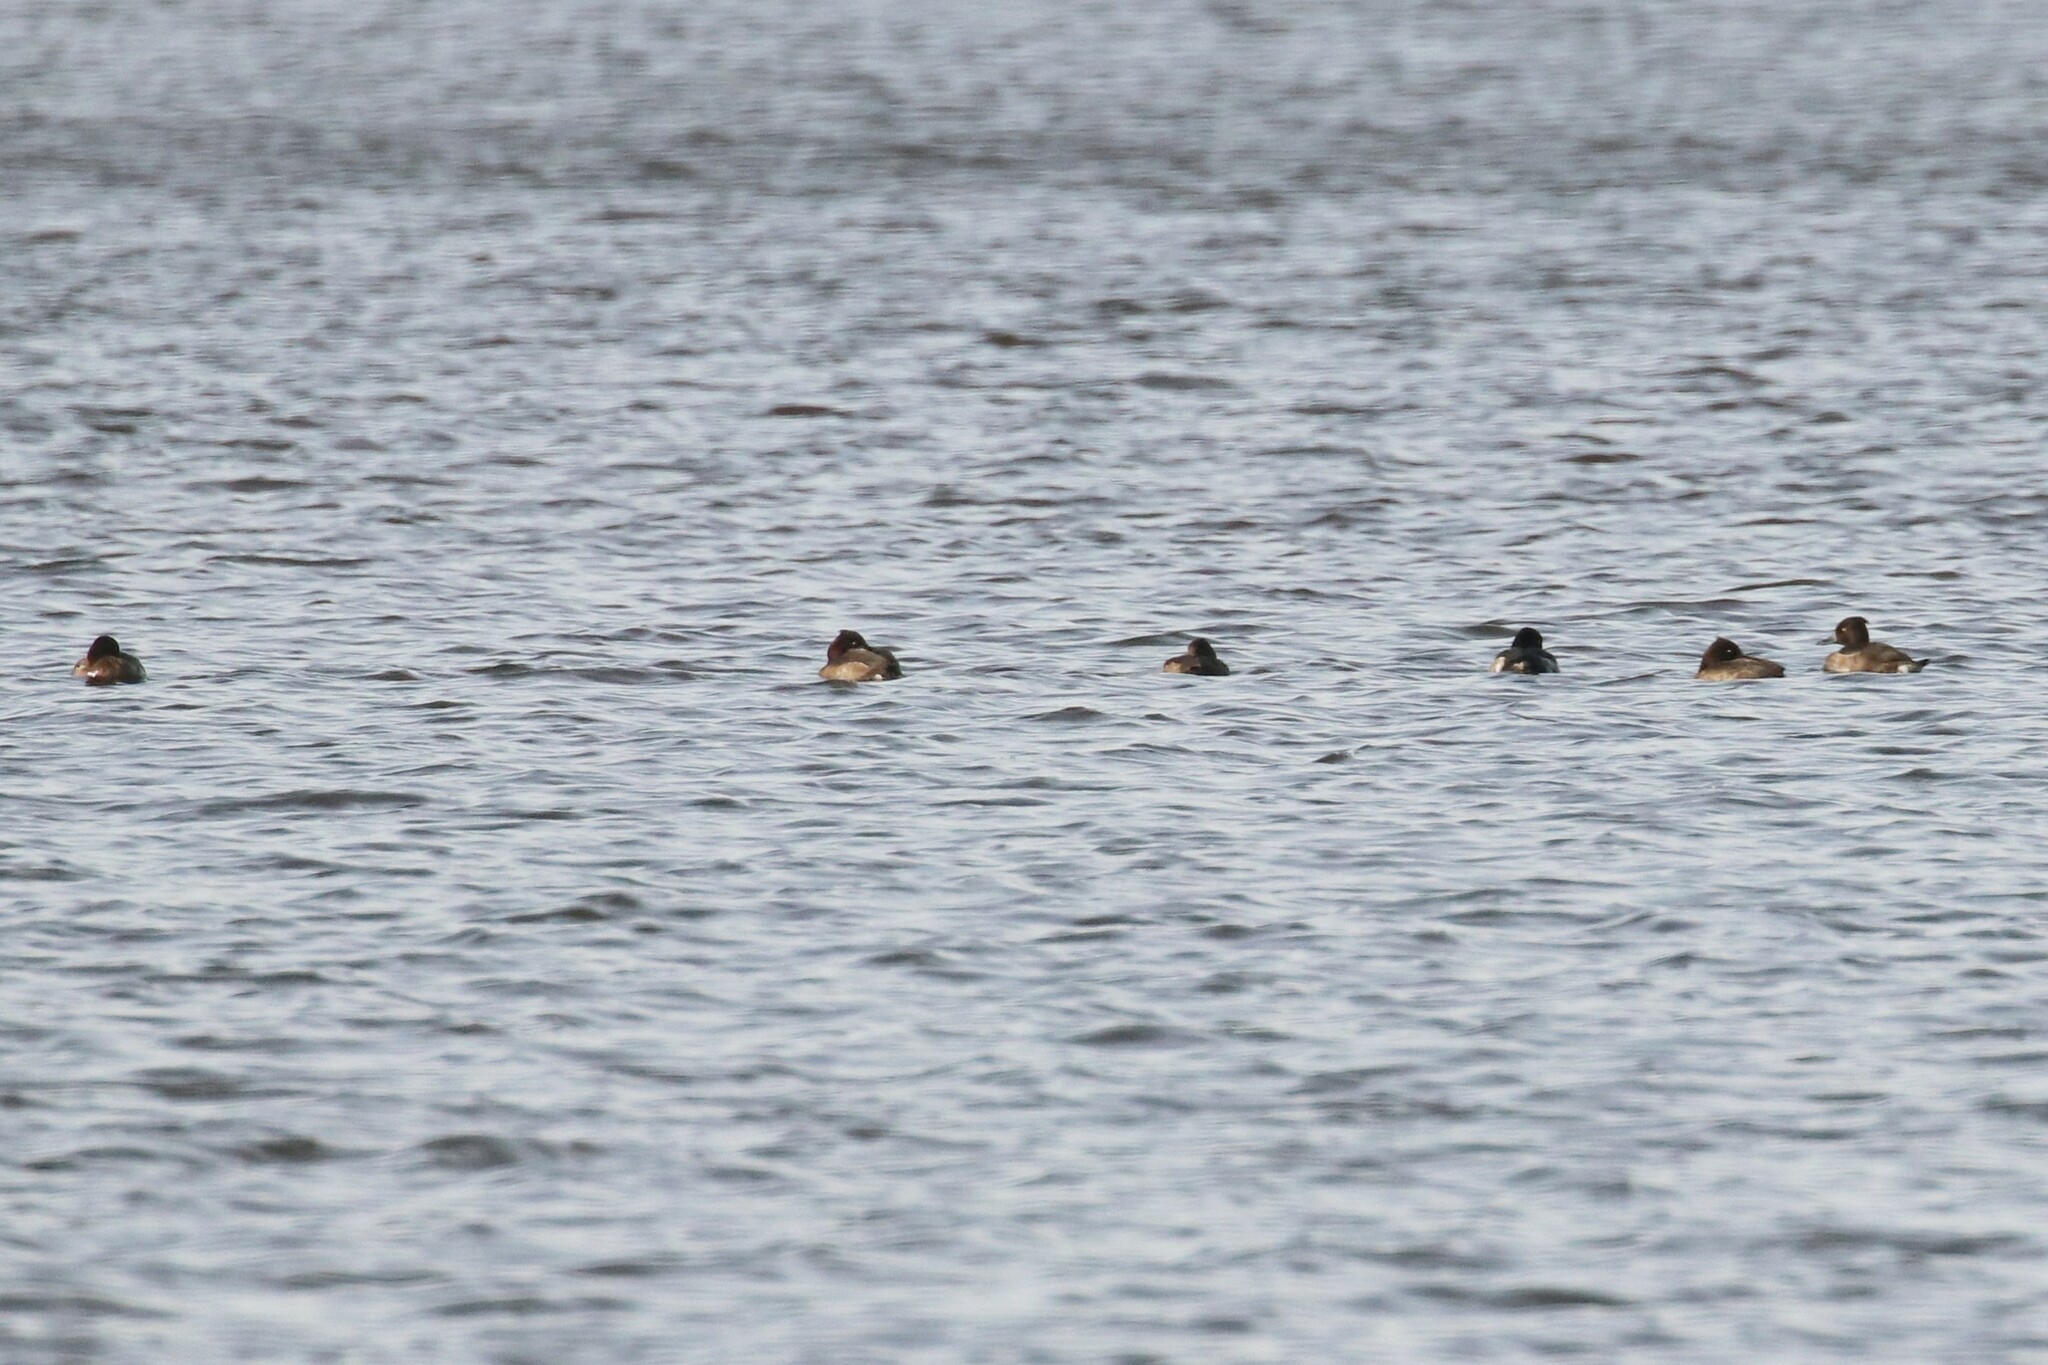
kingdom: Animalia
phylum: Chordata
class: Aves
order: Anseriformes
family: Anatidae
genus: Aythya
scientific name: Aythya fuligula
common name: Tufted duck
